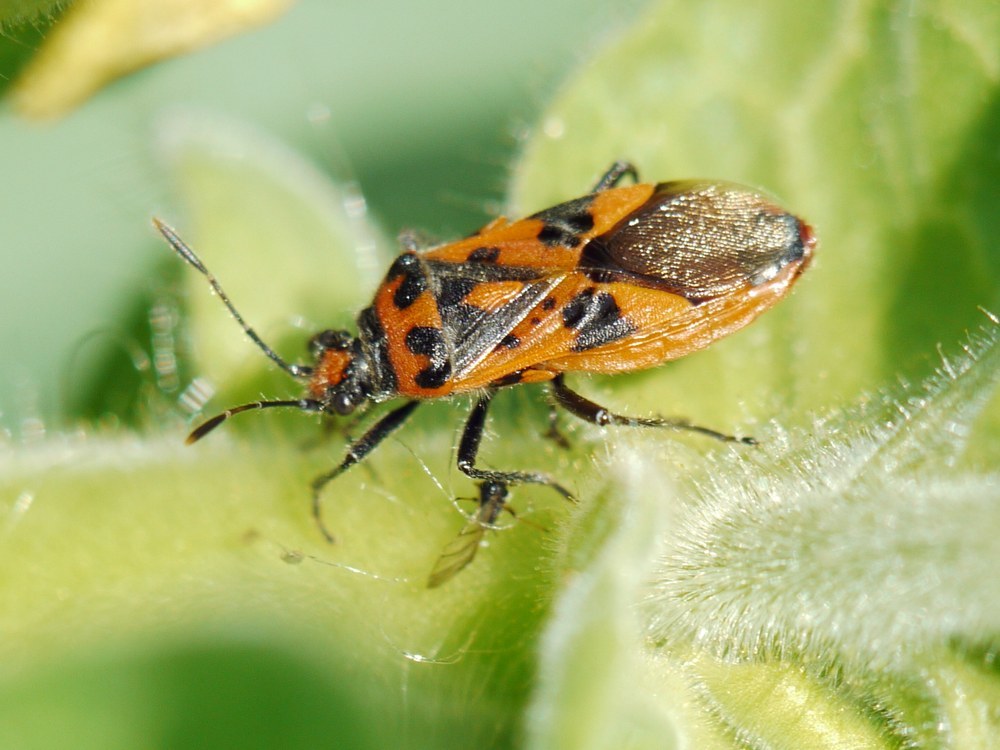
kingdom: Animalia
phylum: Arthropoda
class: Insecta
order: Hemiptera
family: Rhopalidae
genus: Corizus
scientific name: Corizus hyoscyami
